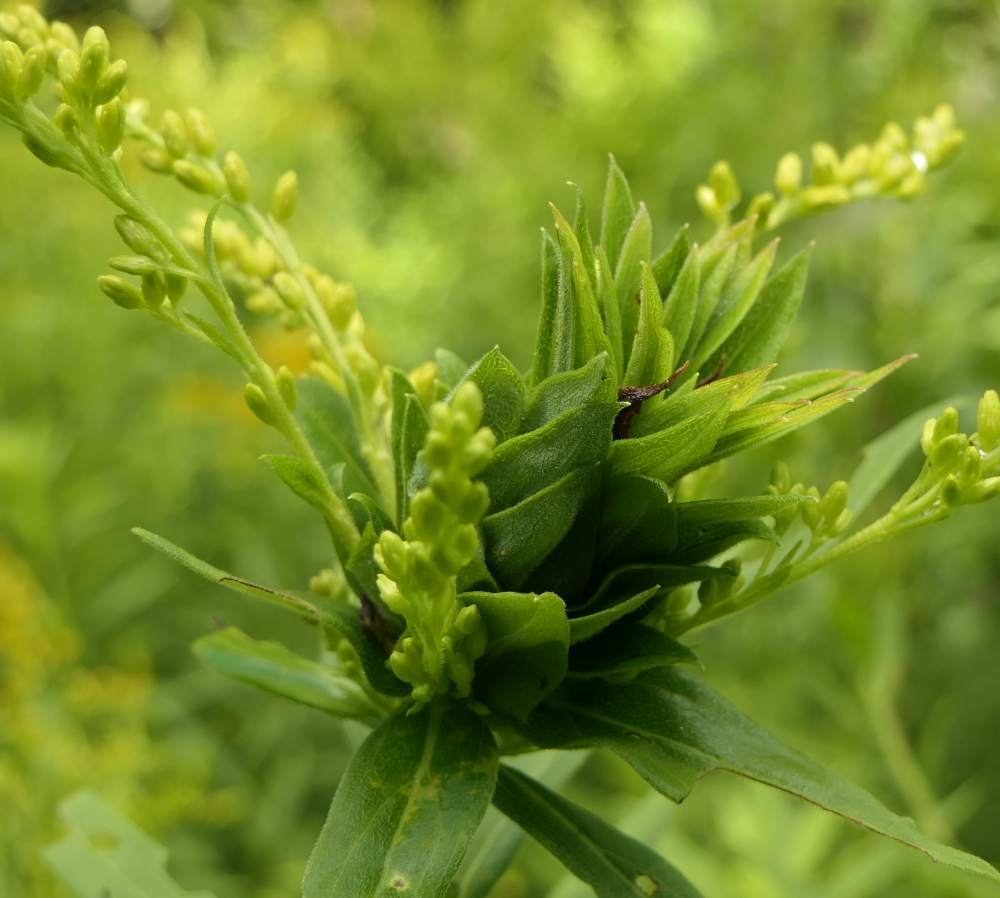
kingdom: Animalia
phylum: Arthropoda
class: Insecta
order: Diptera
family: Cecidomyiidae
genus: Rhopalomyia
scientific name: Rhopalomyia solidaginis
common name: Goldenrod bunch gall midge
